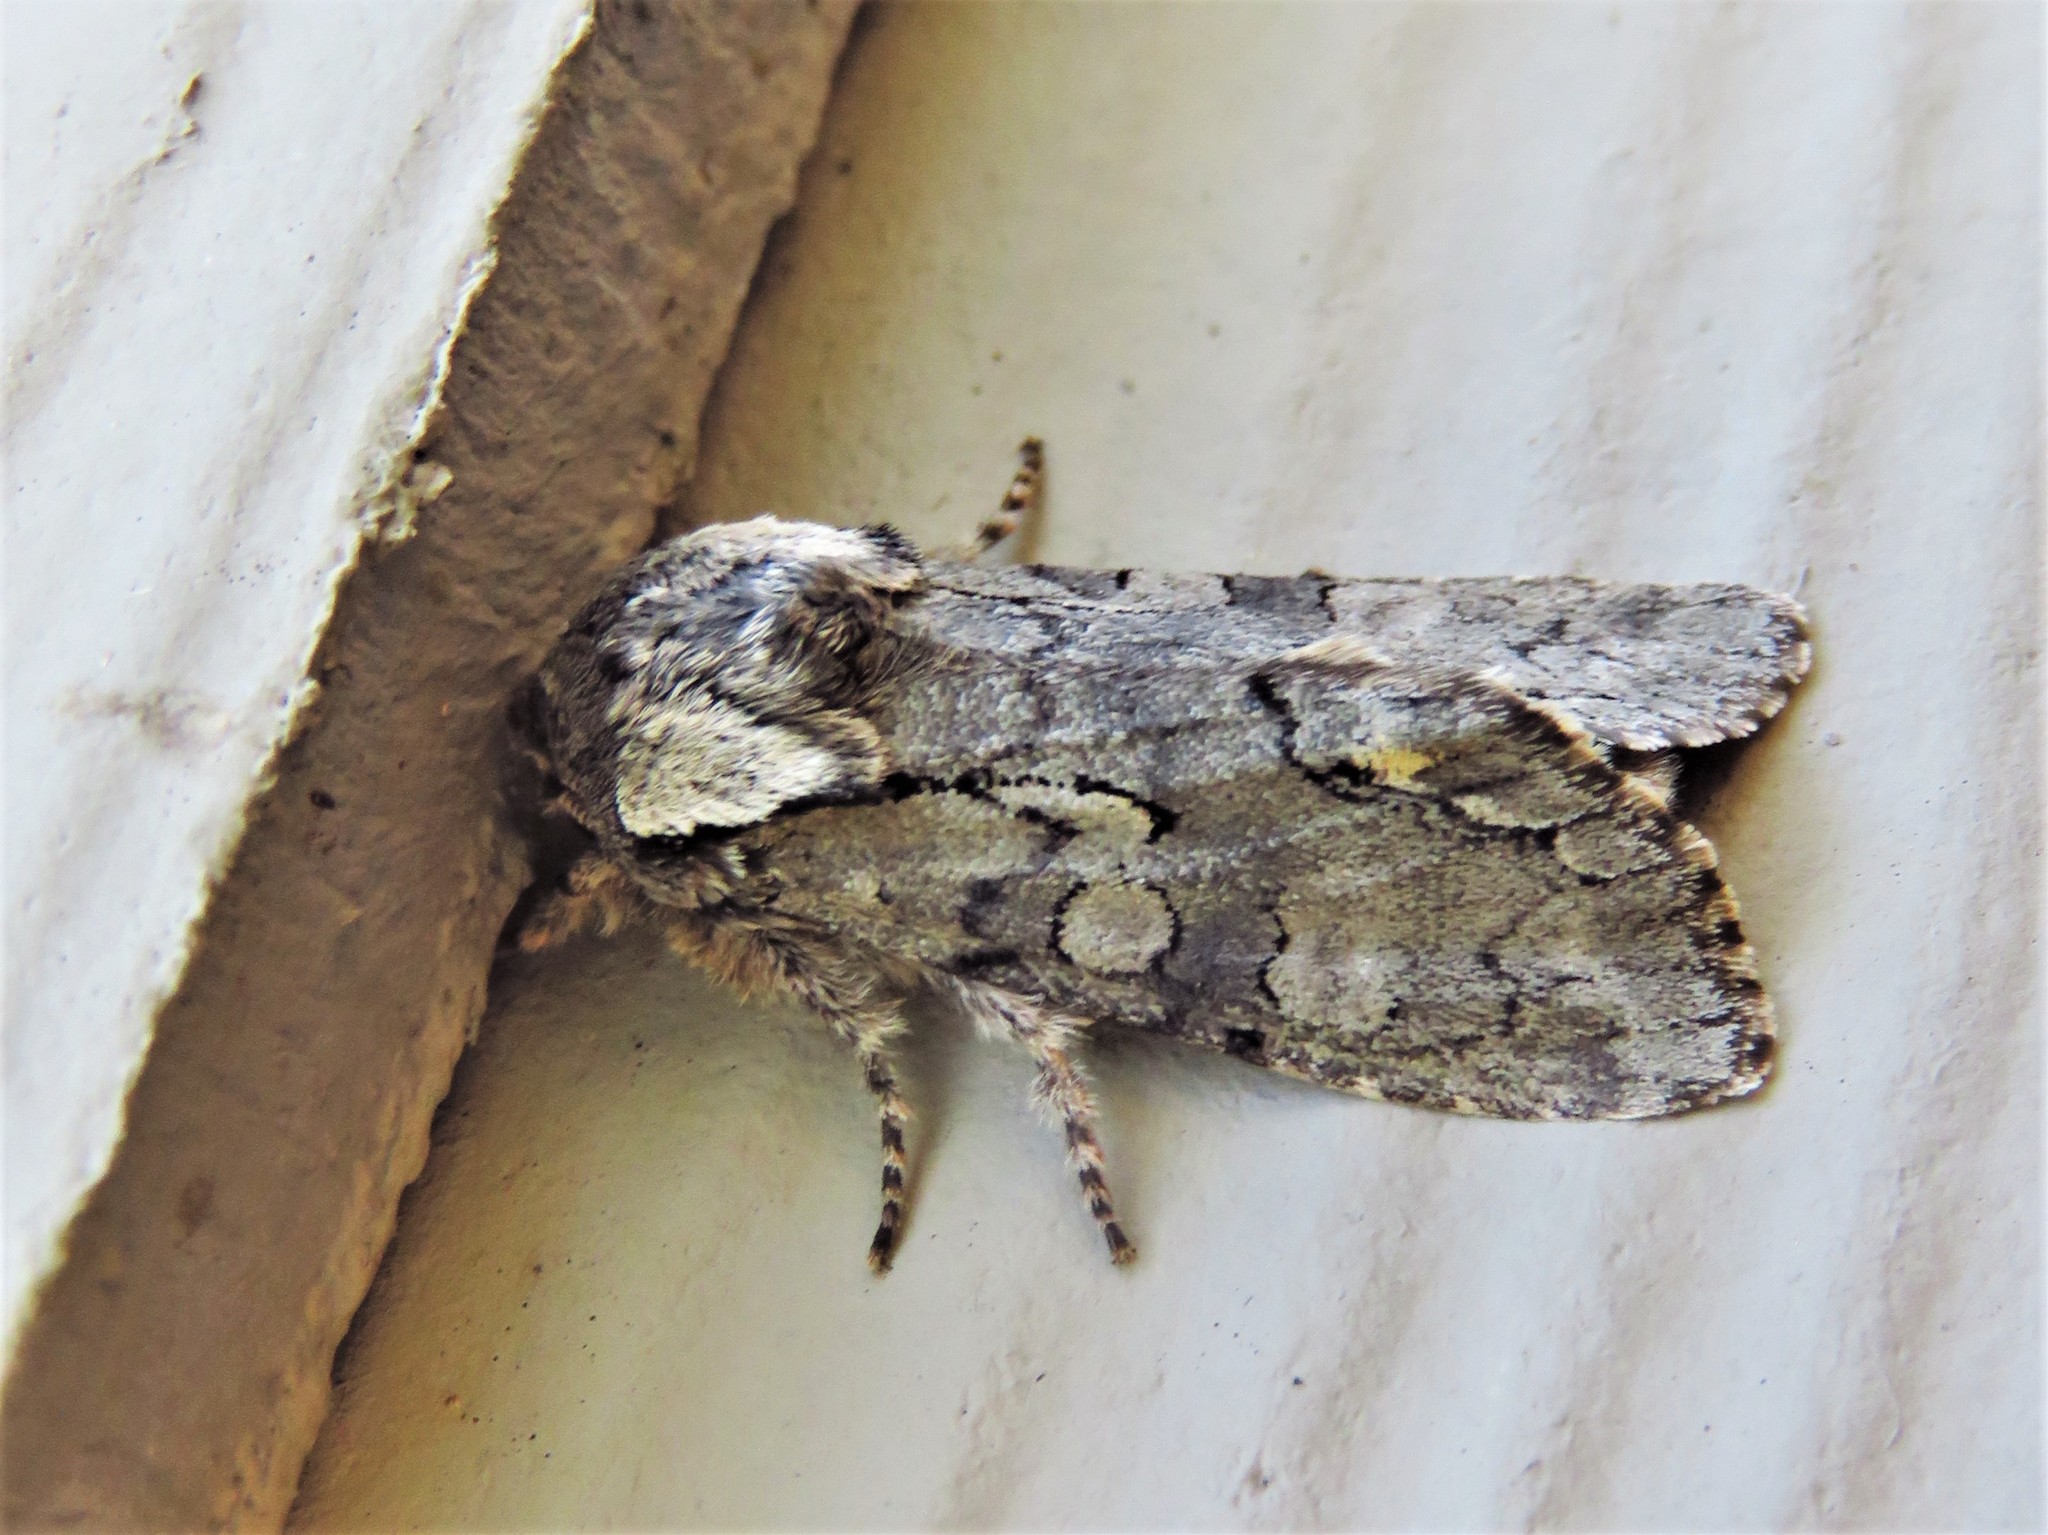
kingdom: Animalia
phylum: Arthropoda
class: Insecta
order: Lepidoptera
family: Noctuidae
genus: Psaphida
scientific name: Psaphida electilis
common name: Chosen sallow
